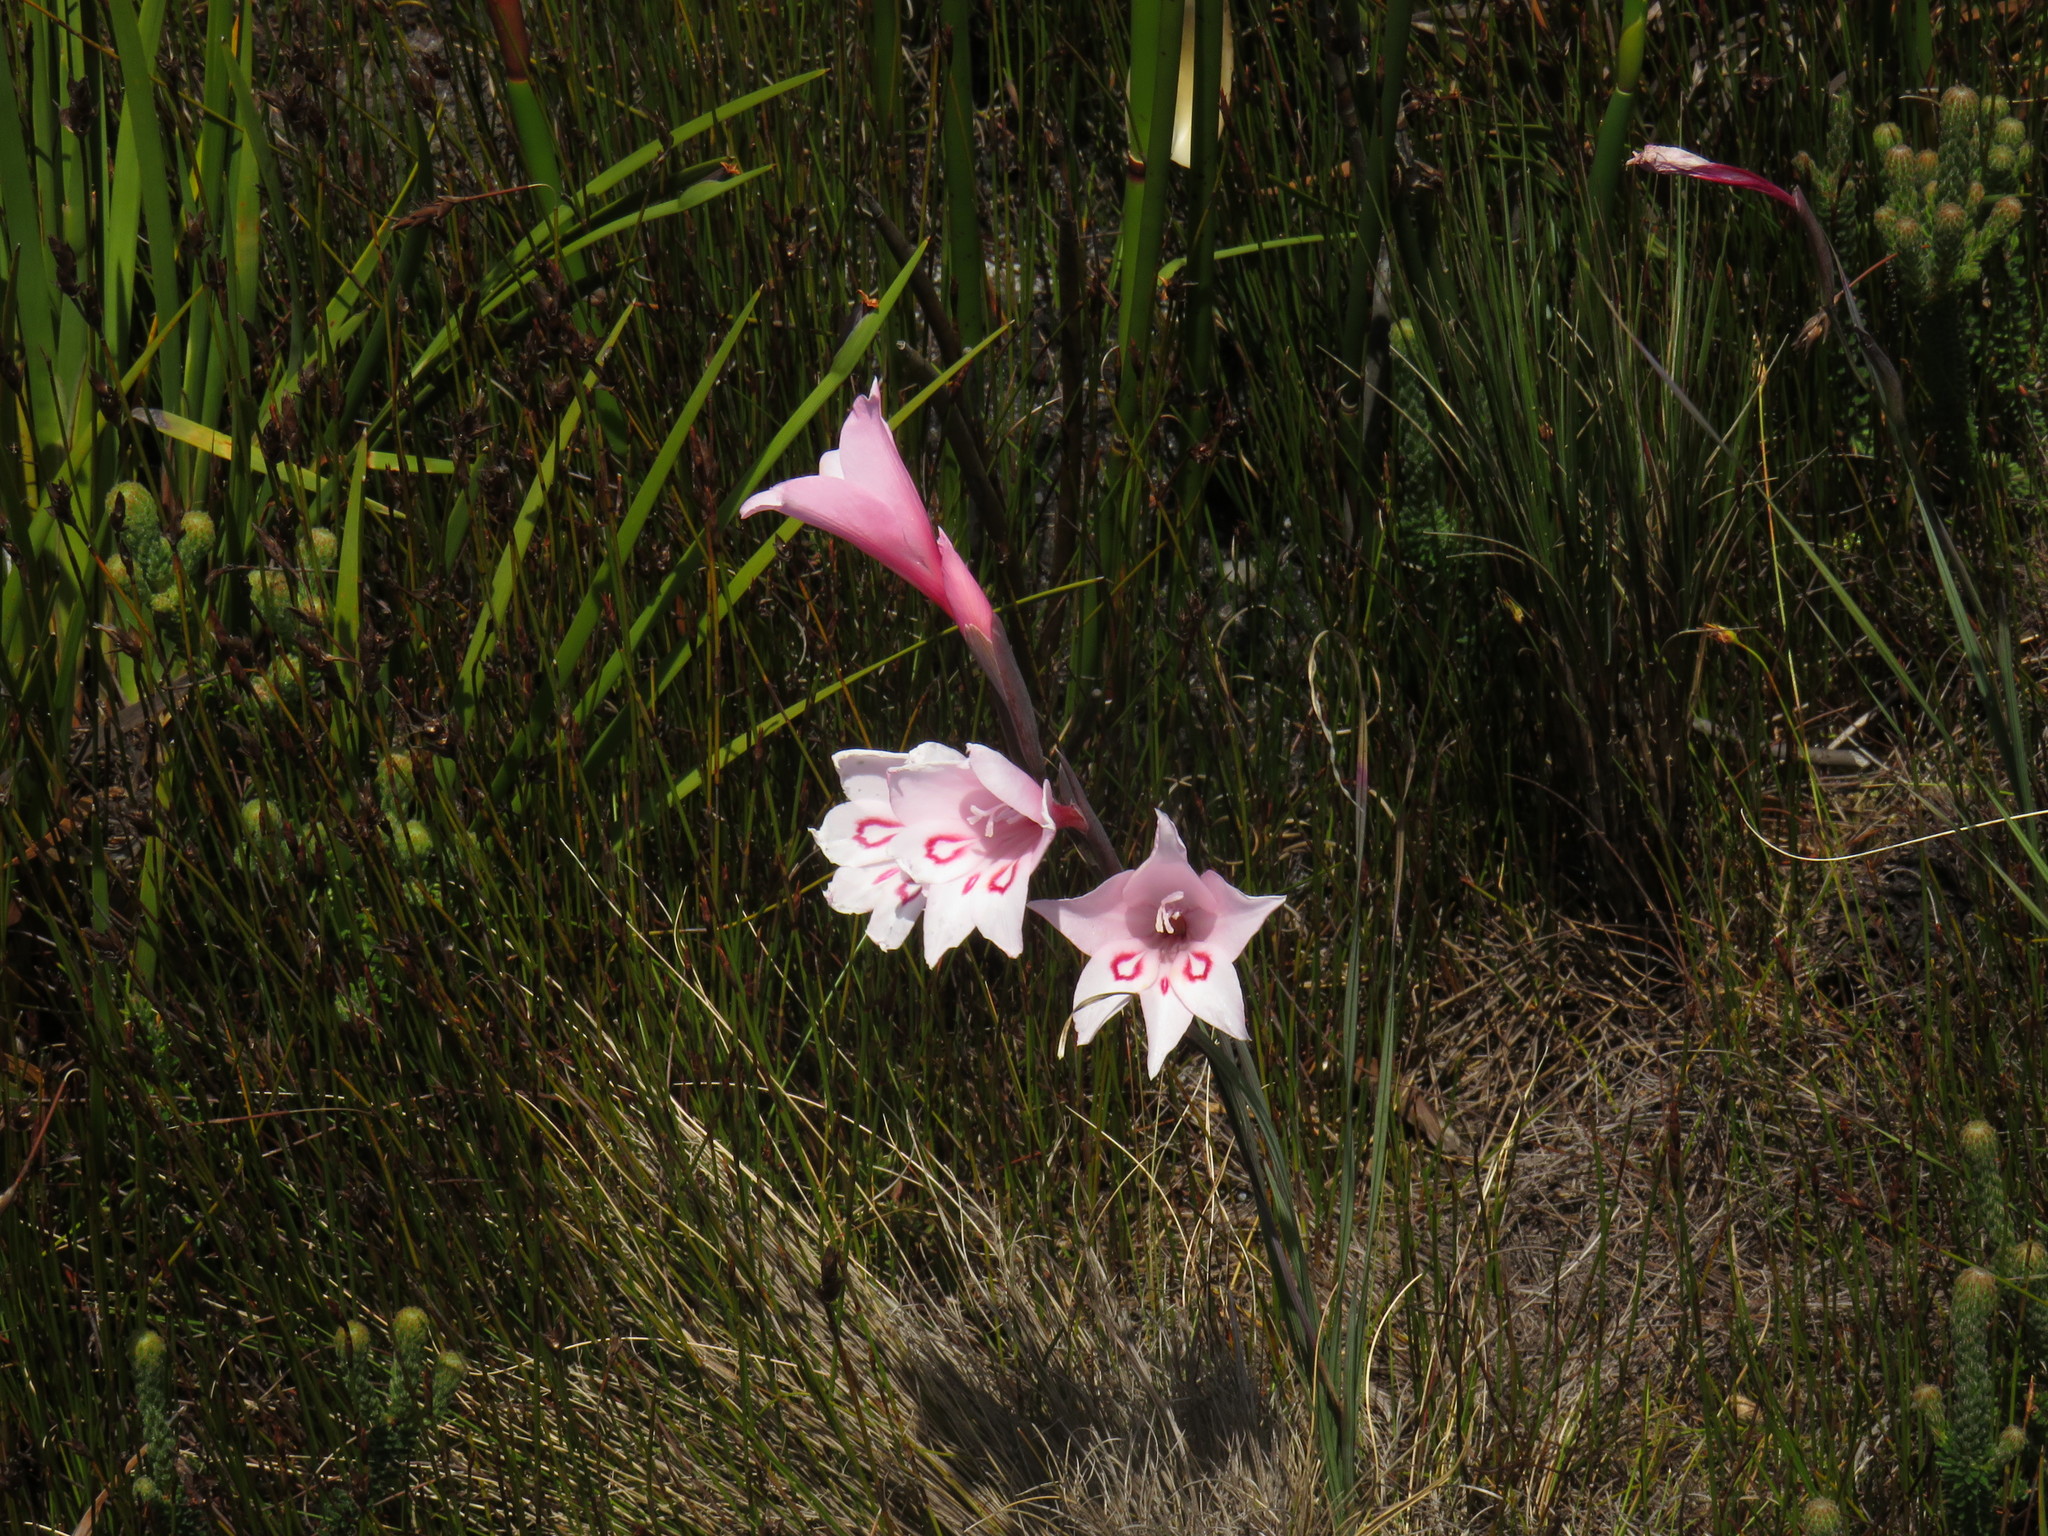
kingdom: Plantae
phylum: Tracheophyta
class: Liliopsida
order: Asparagales
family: Iridaceae
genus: Gladiolus
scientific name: Gladiolus pappei
